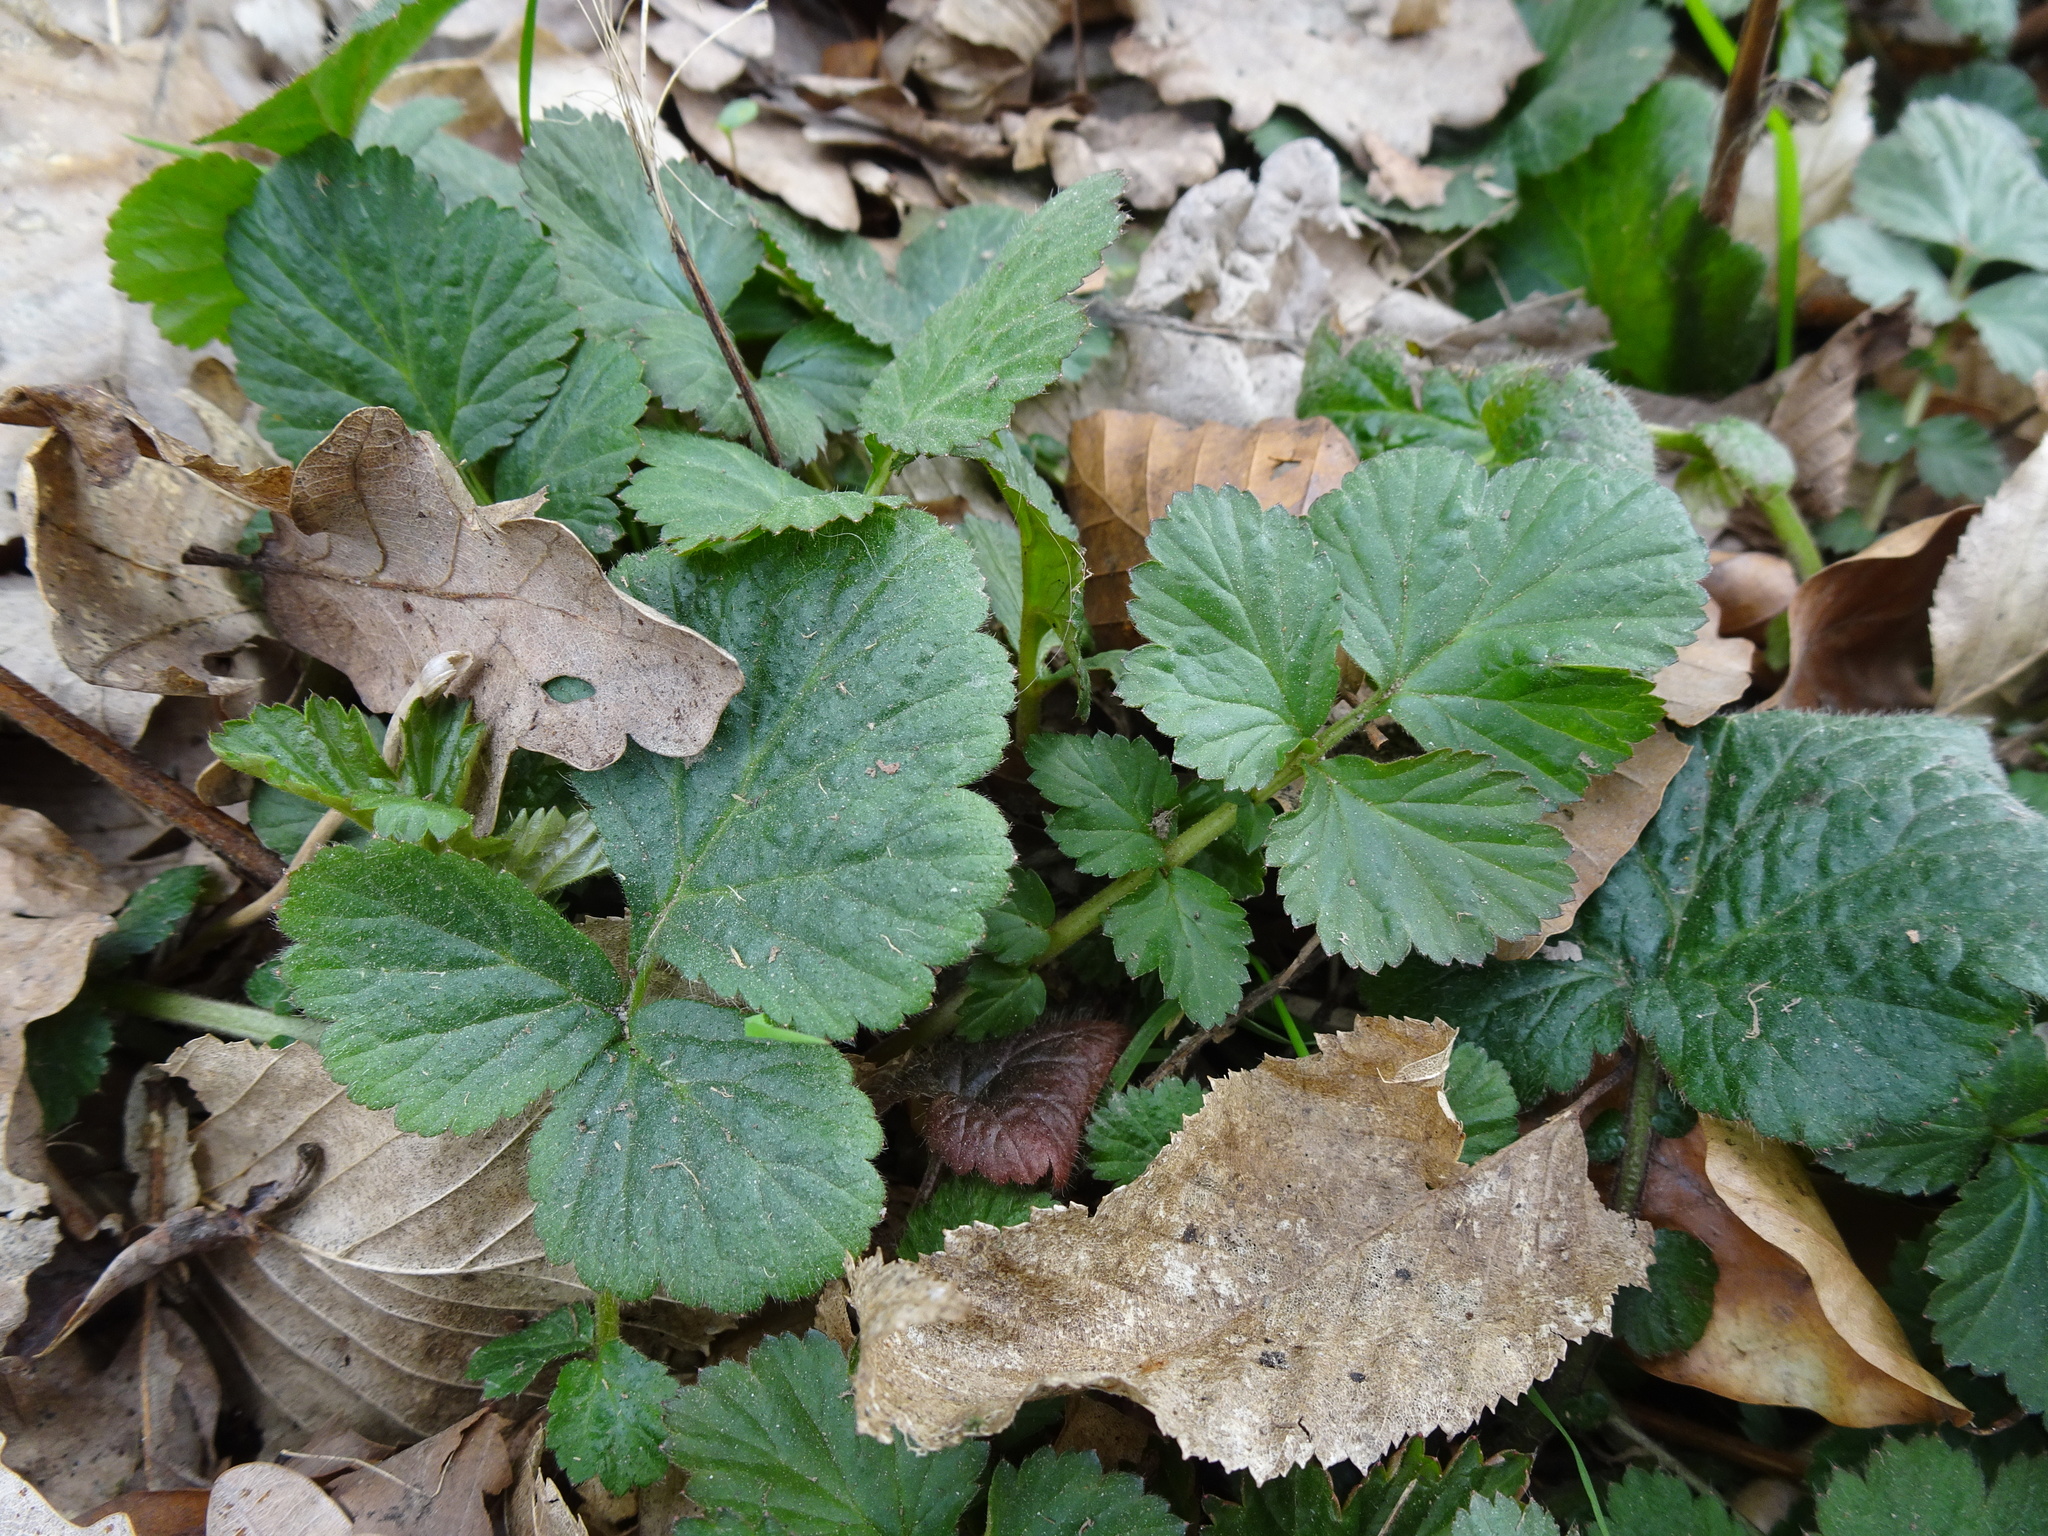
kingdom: Plantae
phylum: Tracheophyta
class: Magnoliopsida
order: Rosales
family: Rosaceae
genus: Geum
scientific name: Geum urbanum
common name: Wood avens
